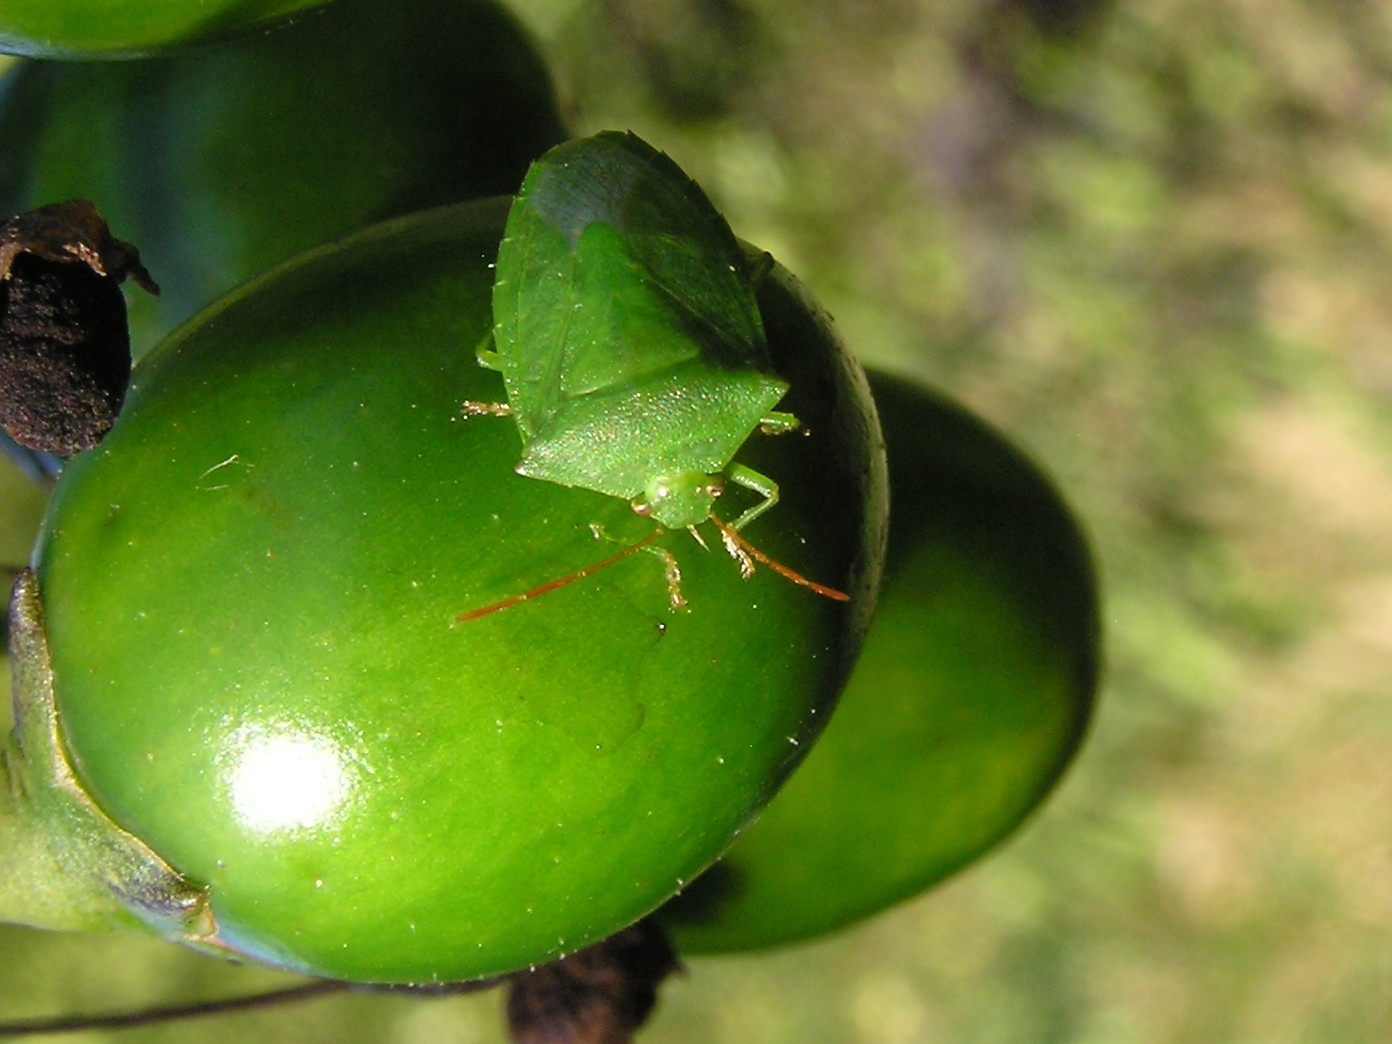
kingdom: Animalia
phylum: Arthropoda
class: Insecta
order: Hemiptera
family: Pentatomidae
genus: Cuspicona
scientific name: Cuspicona simplex
